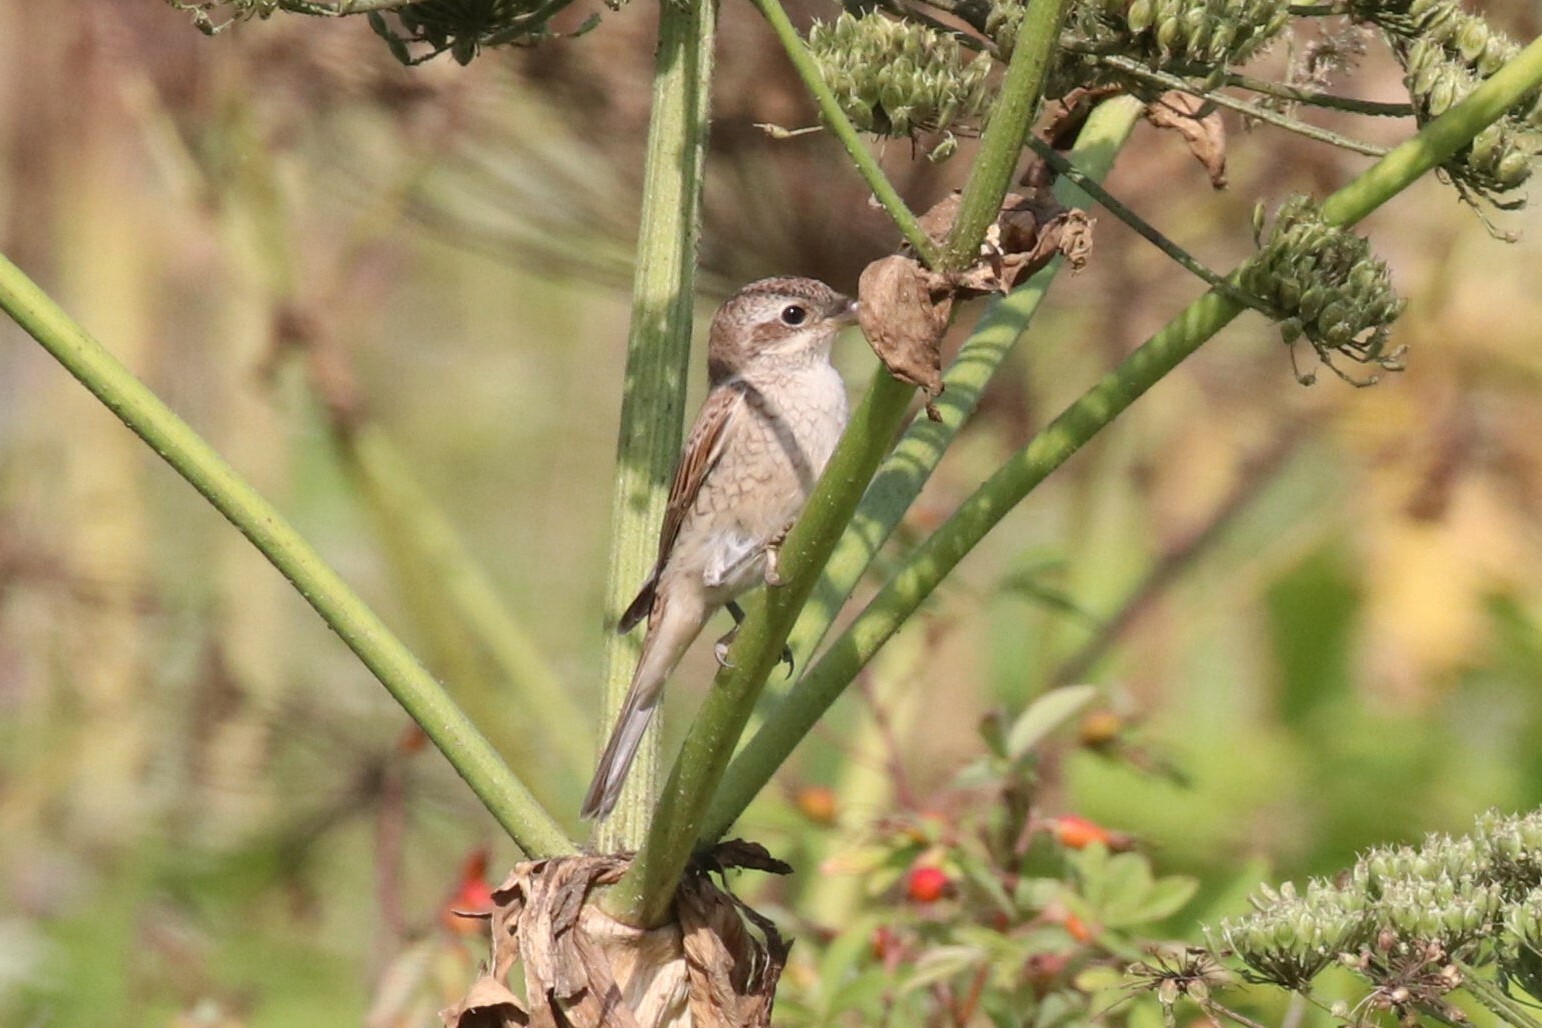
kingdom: Animalia
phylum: Chordata
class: Aves
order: Passeriformes
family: Laniidae
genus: Lanius
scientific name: Lanius collurio
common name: Red-backed shrike
